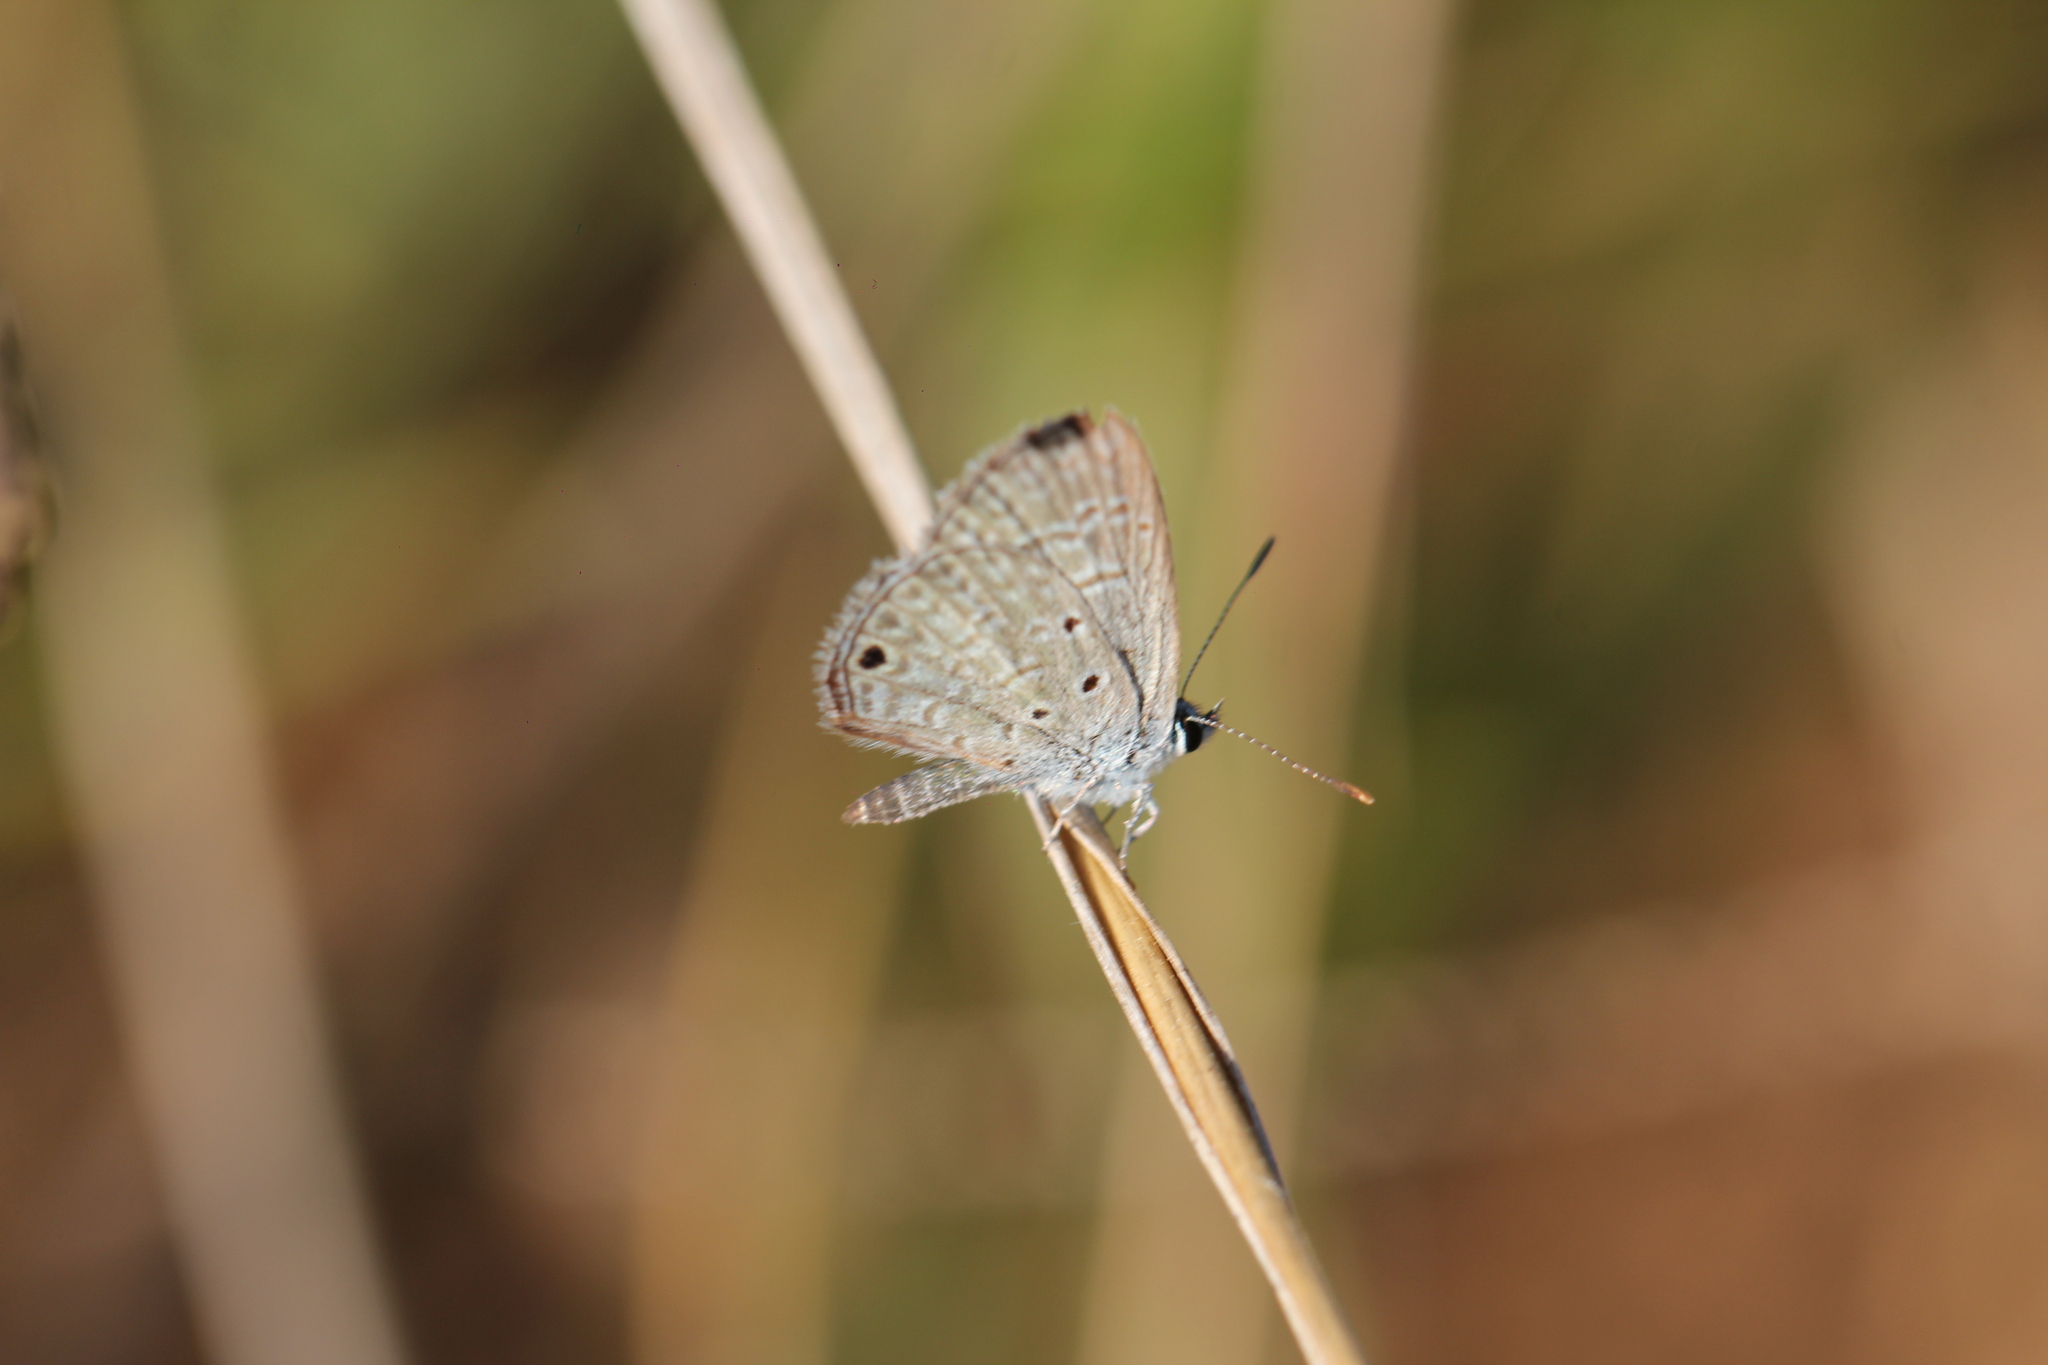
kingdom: Animalia
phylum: Arthropoda
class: Insecta
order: Lepidoptera
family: Lycaenidae
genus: Hemiargus
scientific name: Hemiargus hanno
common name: Common blue
